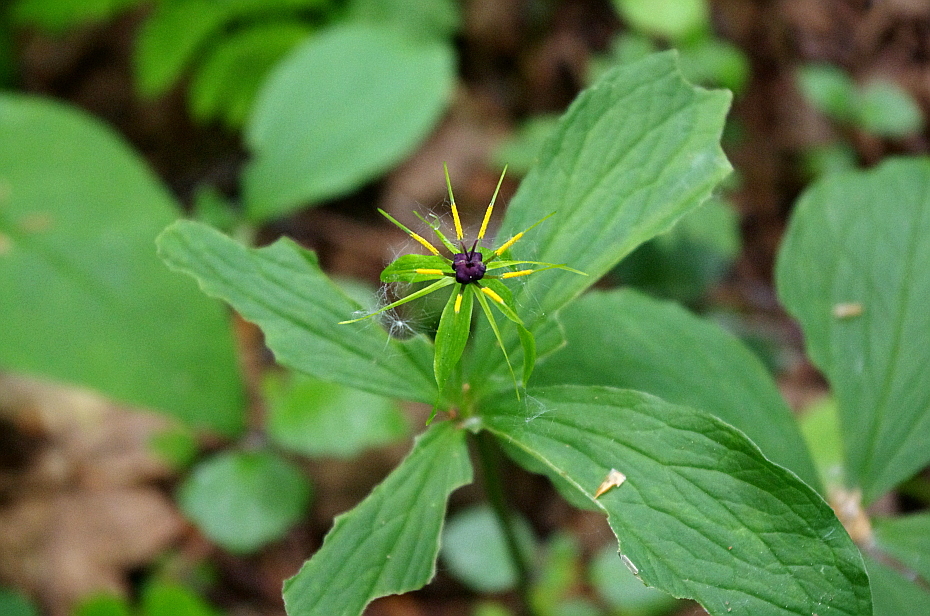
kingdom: Plantae
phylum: Tracheophyta
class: Liliopsida
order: Liliales
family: Melanthiaceae
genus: Paris
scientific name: Paris quadrifolia
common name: Herb-paris
